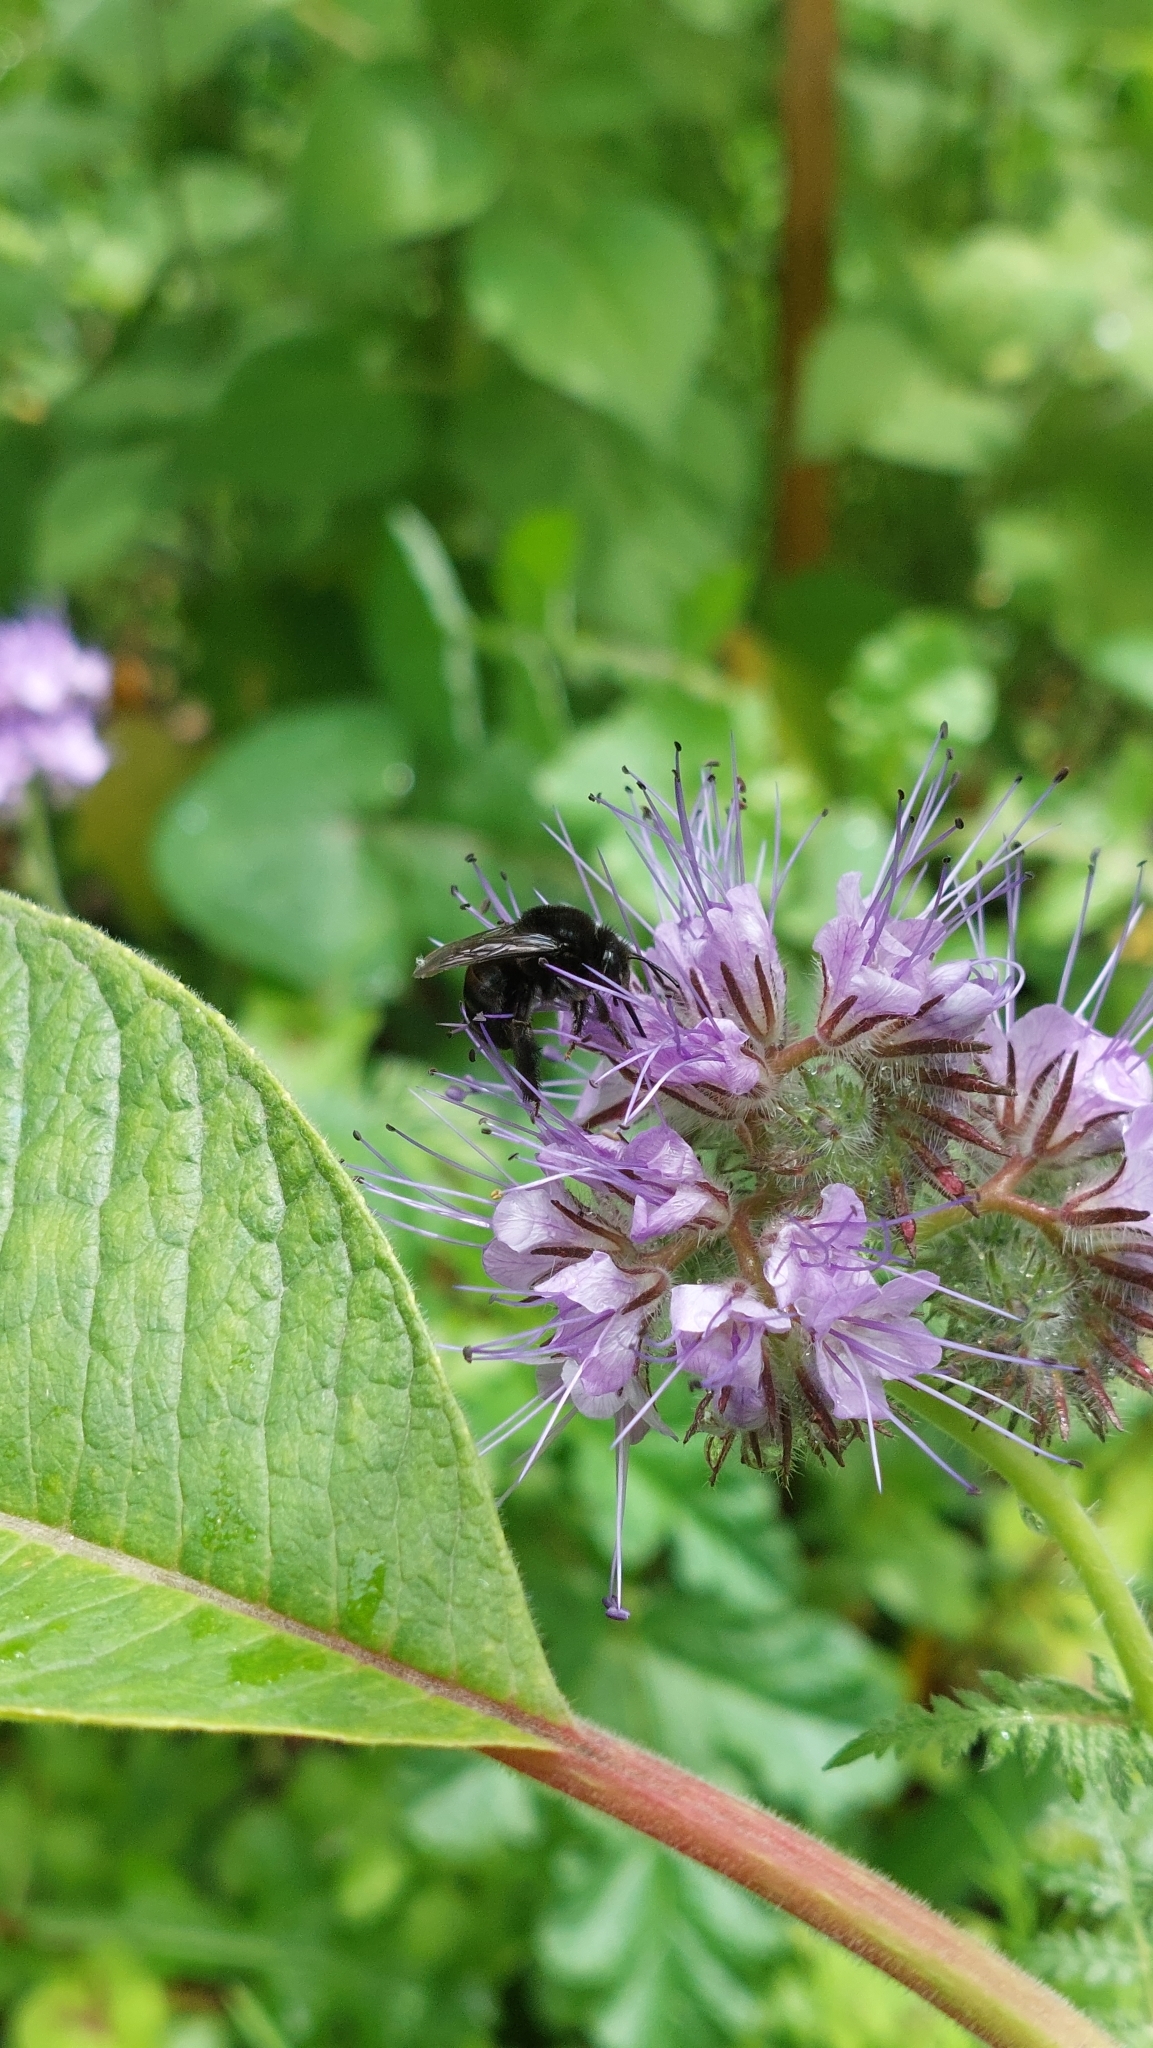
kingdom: Animalia
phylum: Arthropoda
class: Insecta
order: Hymenoptera
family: Apidae
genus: Thygater
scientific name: Thygater aethiops
